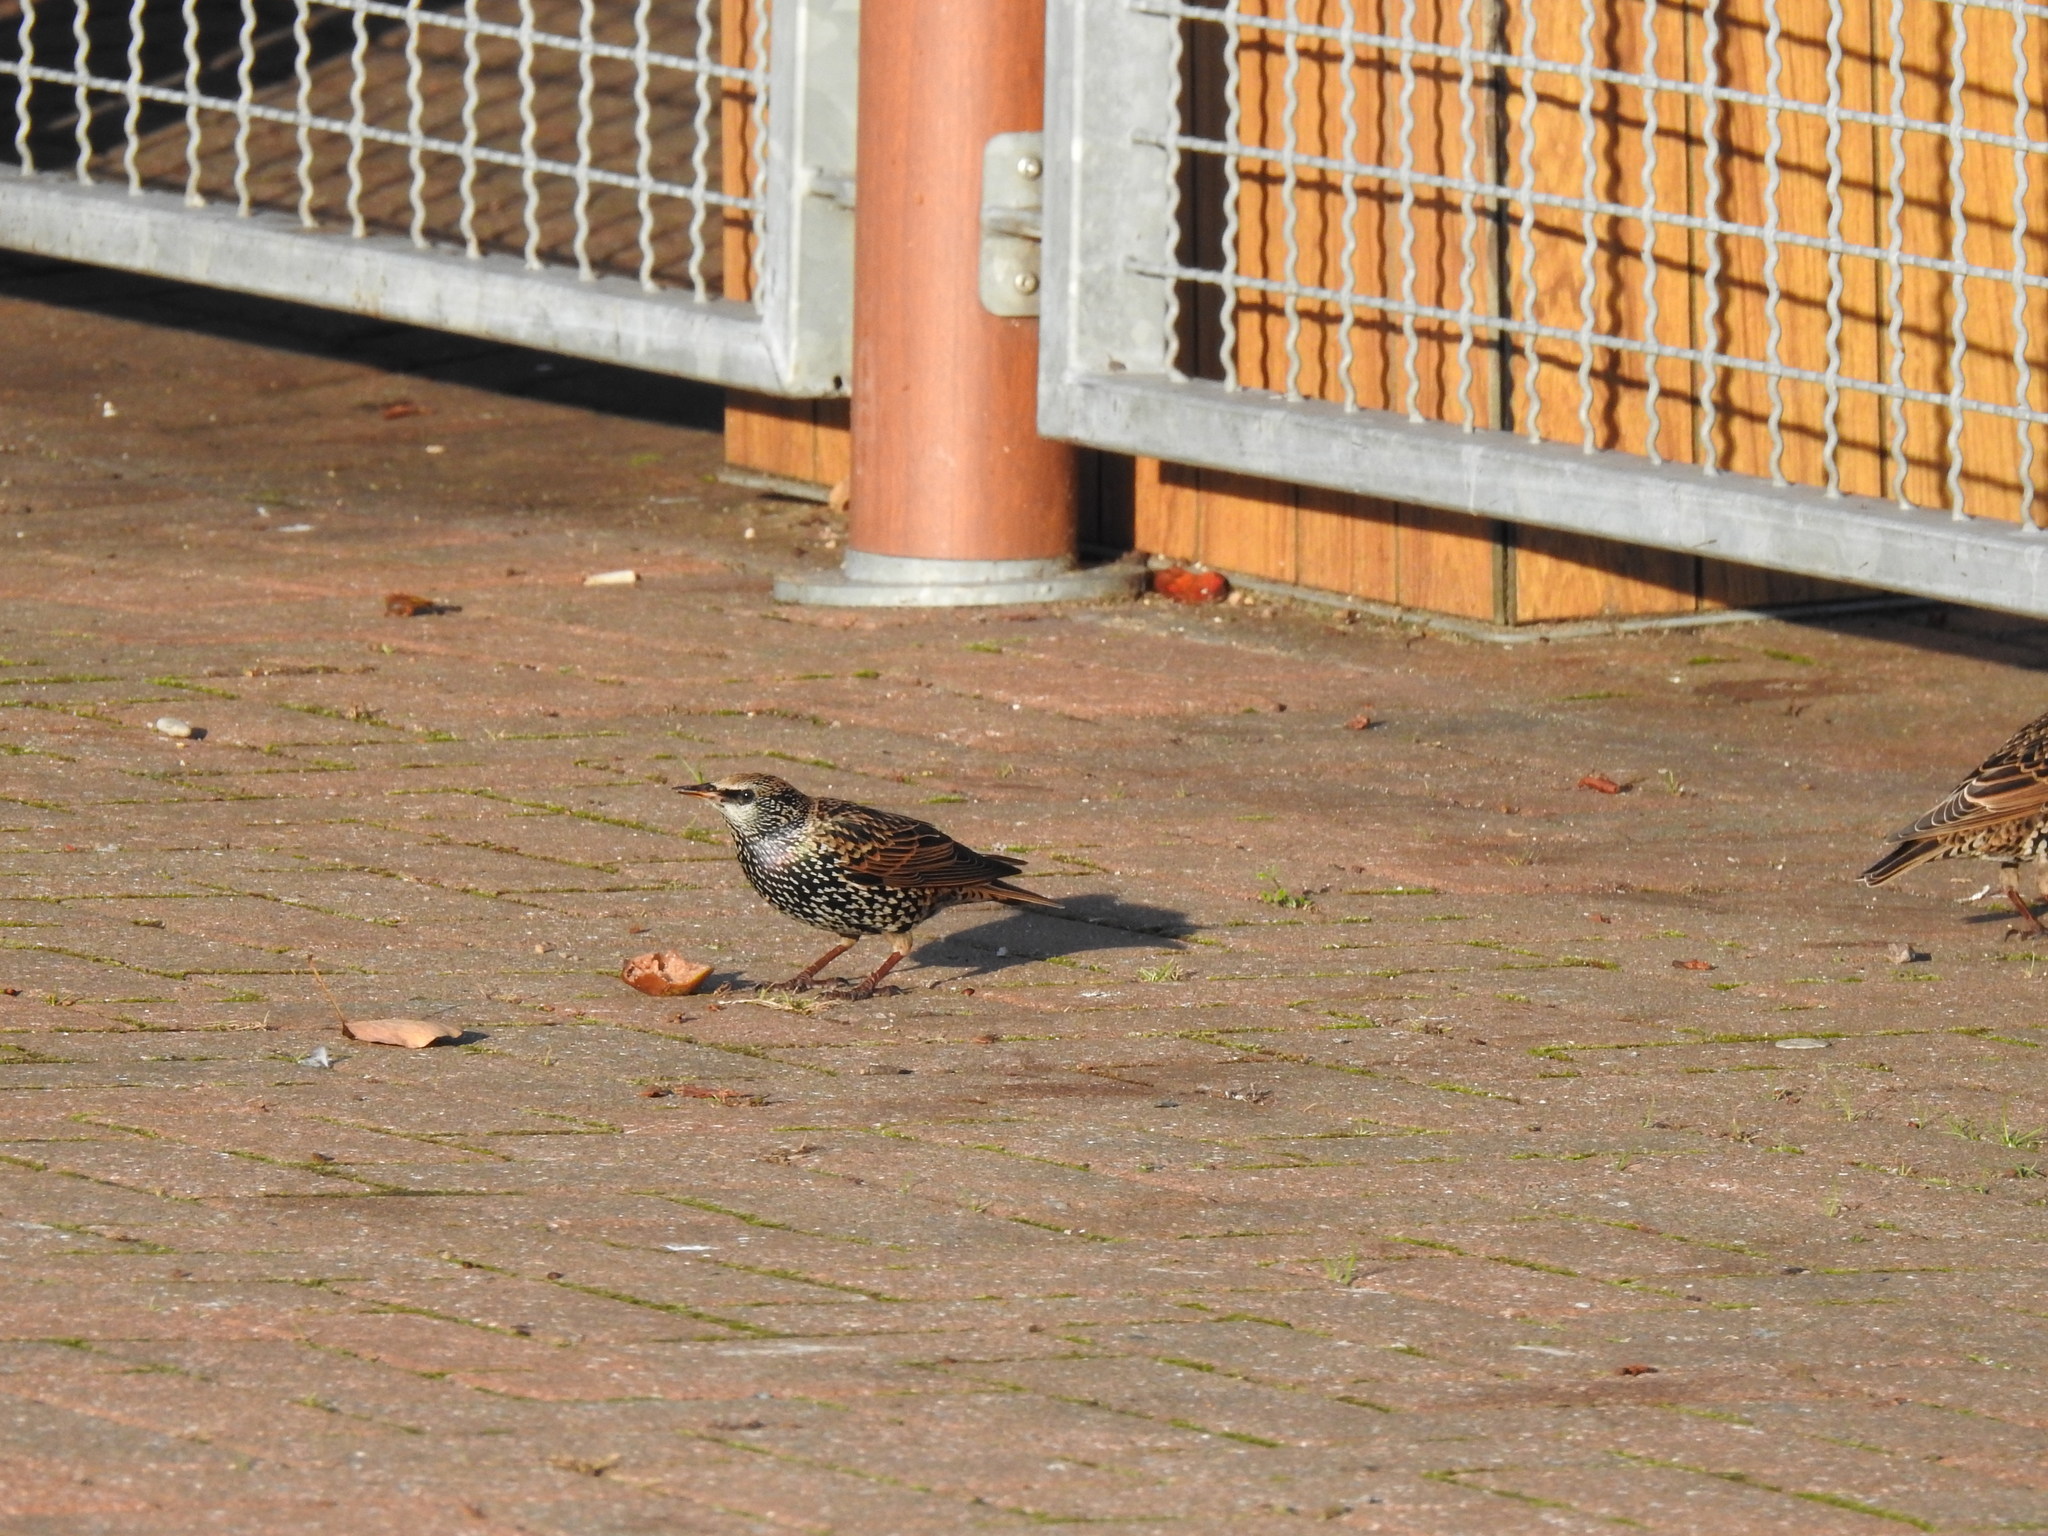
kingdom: Animalia
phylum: Chordata
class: Aves
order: Passeriformes
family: Sturnidae
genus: Sturnus
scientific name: Sturnus vulgaris
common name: Common starling
